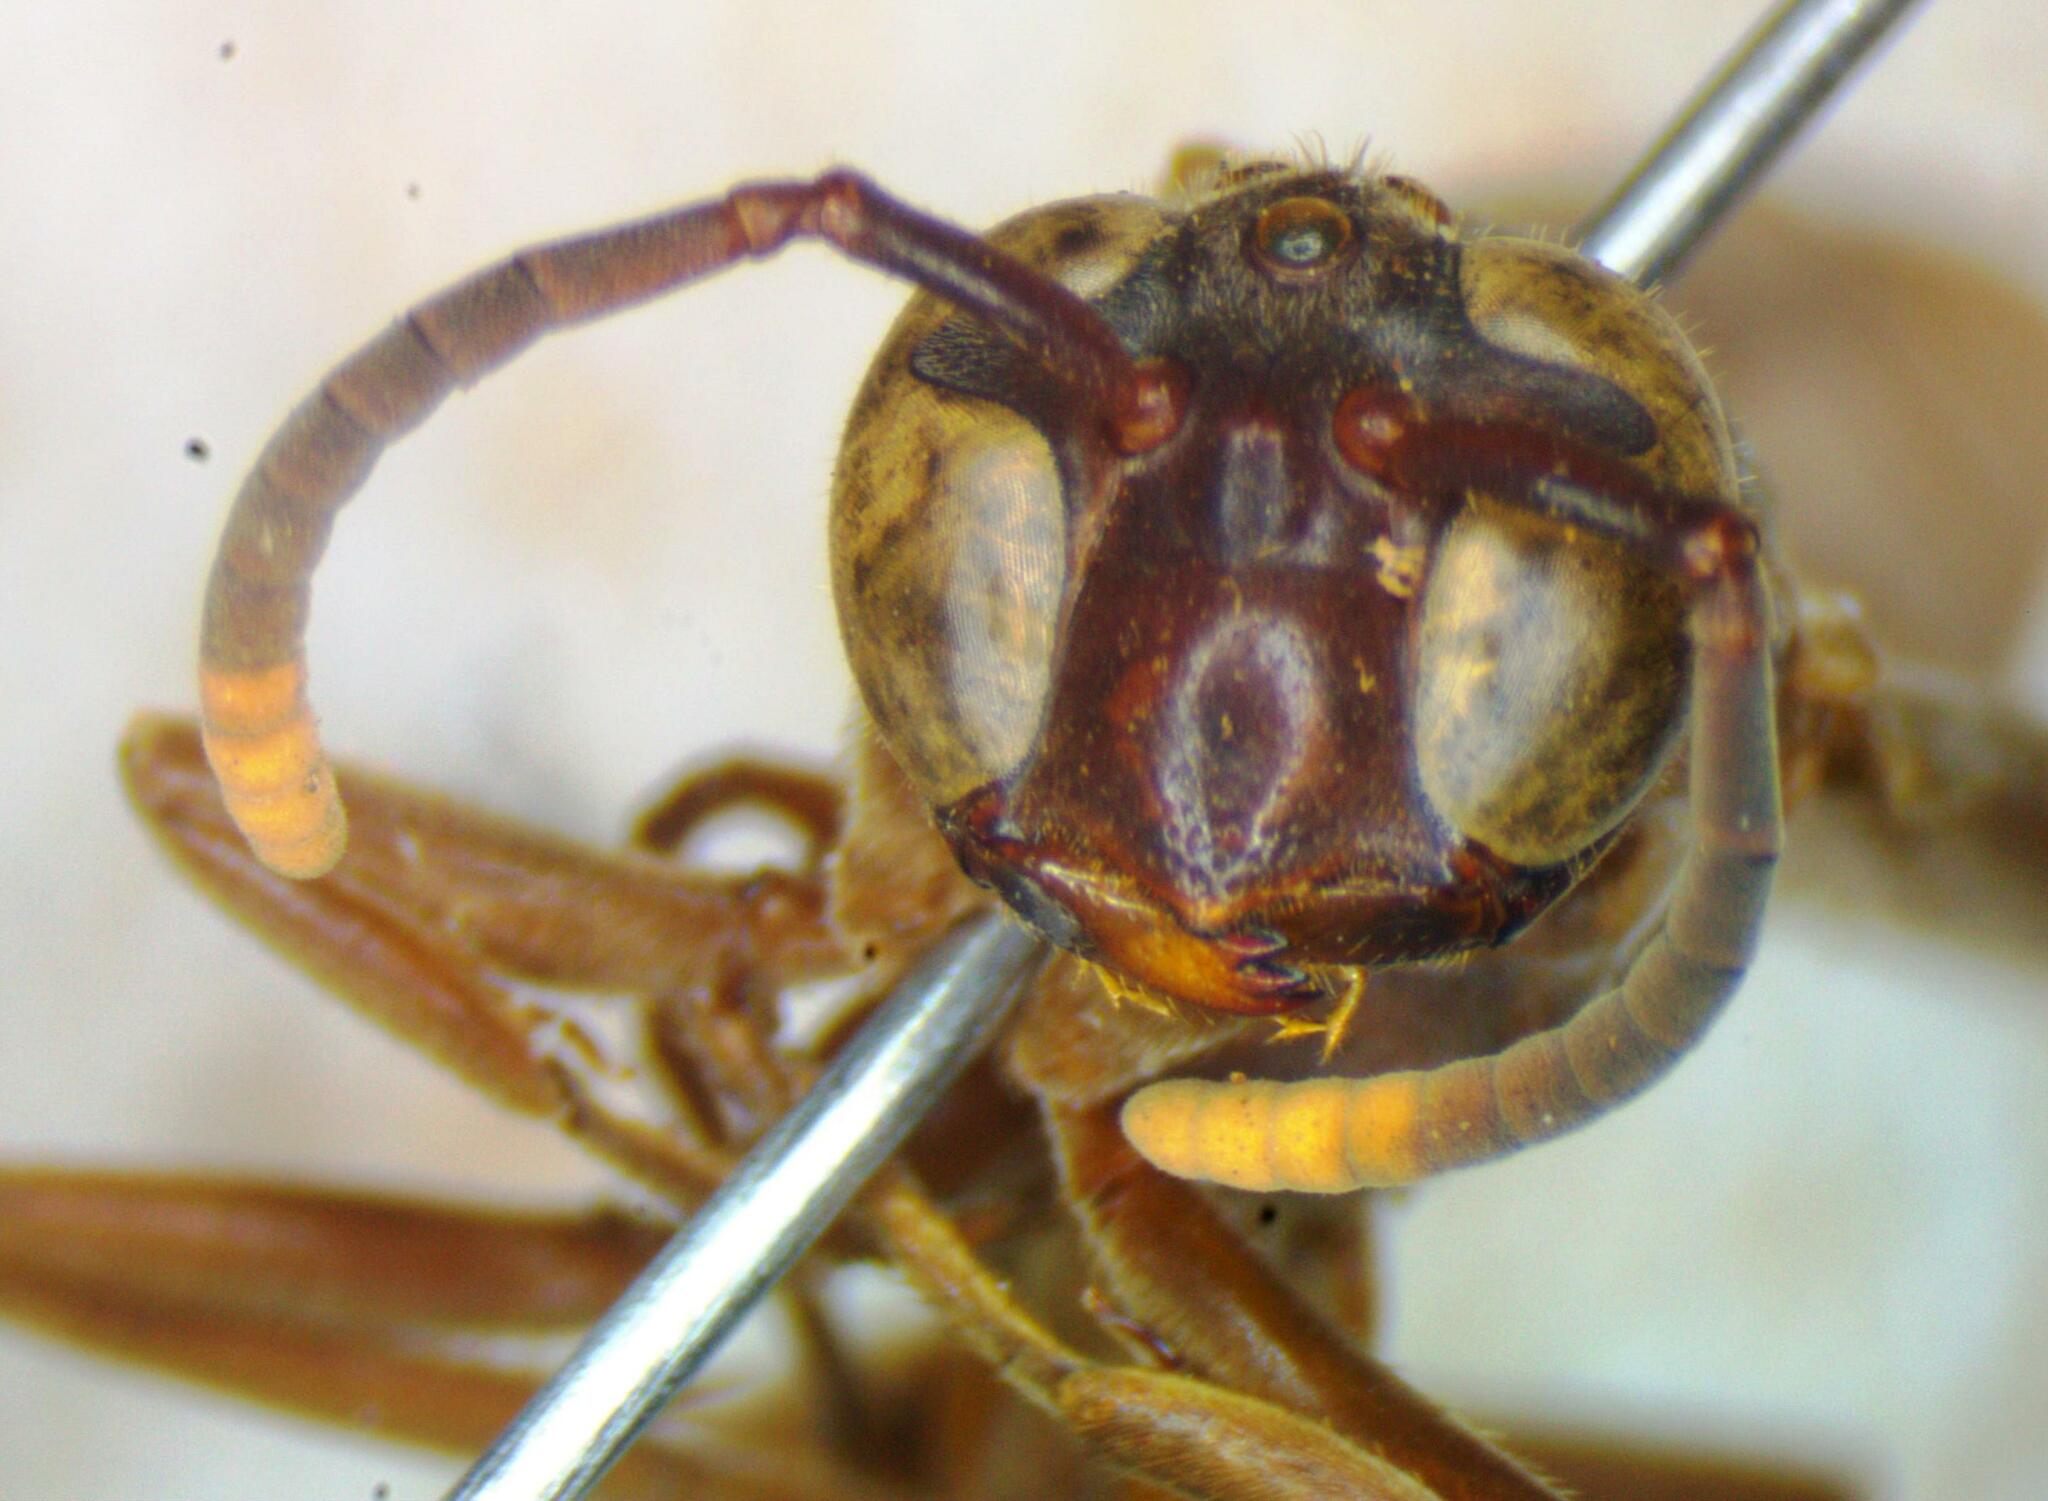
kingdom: Animalia
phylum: Arthropoda
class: Insecta
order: Hymenoptera
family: Vespidae
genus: Apoica
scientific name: Apoica pallens
